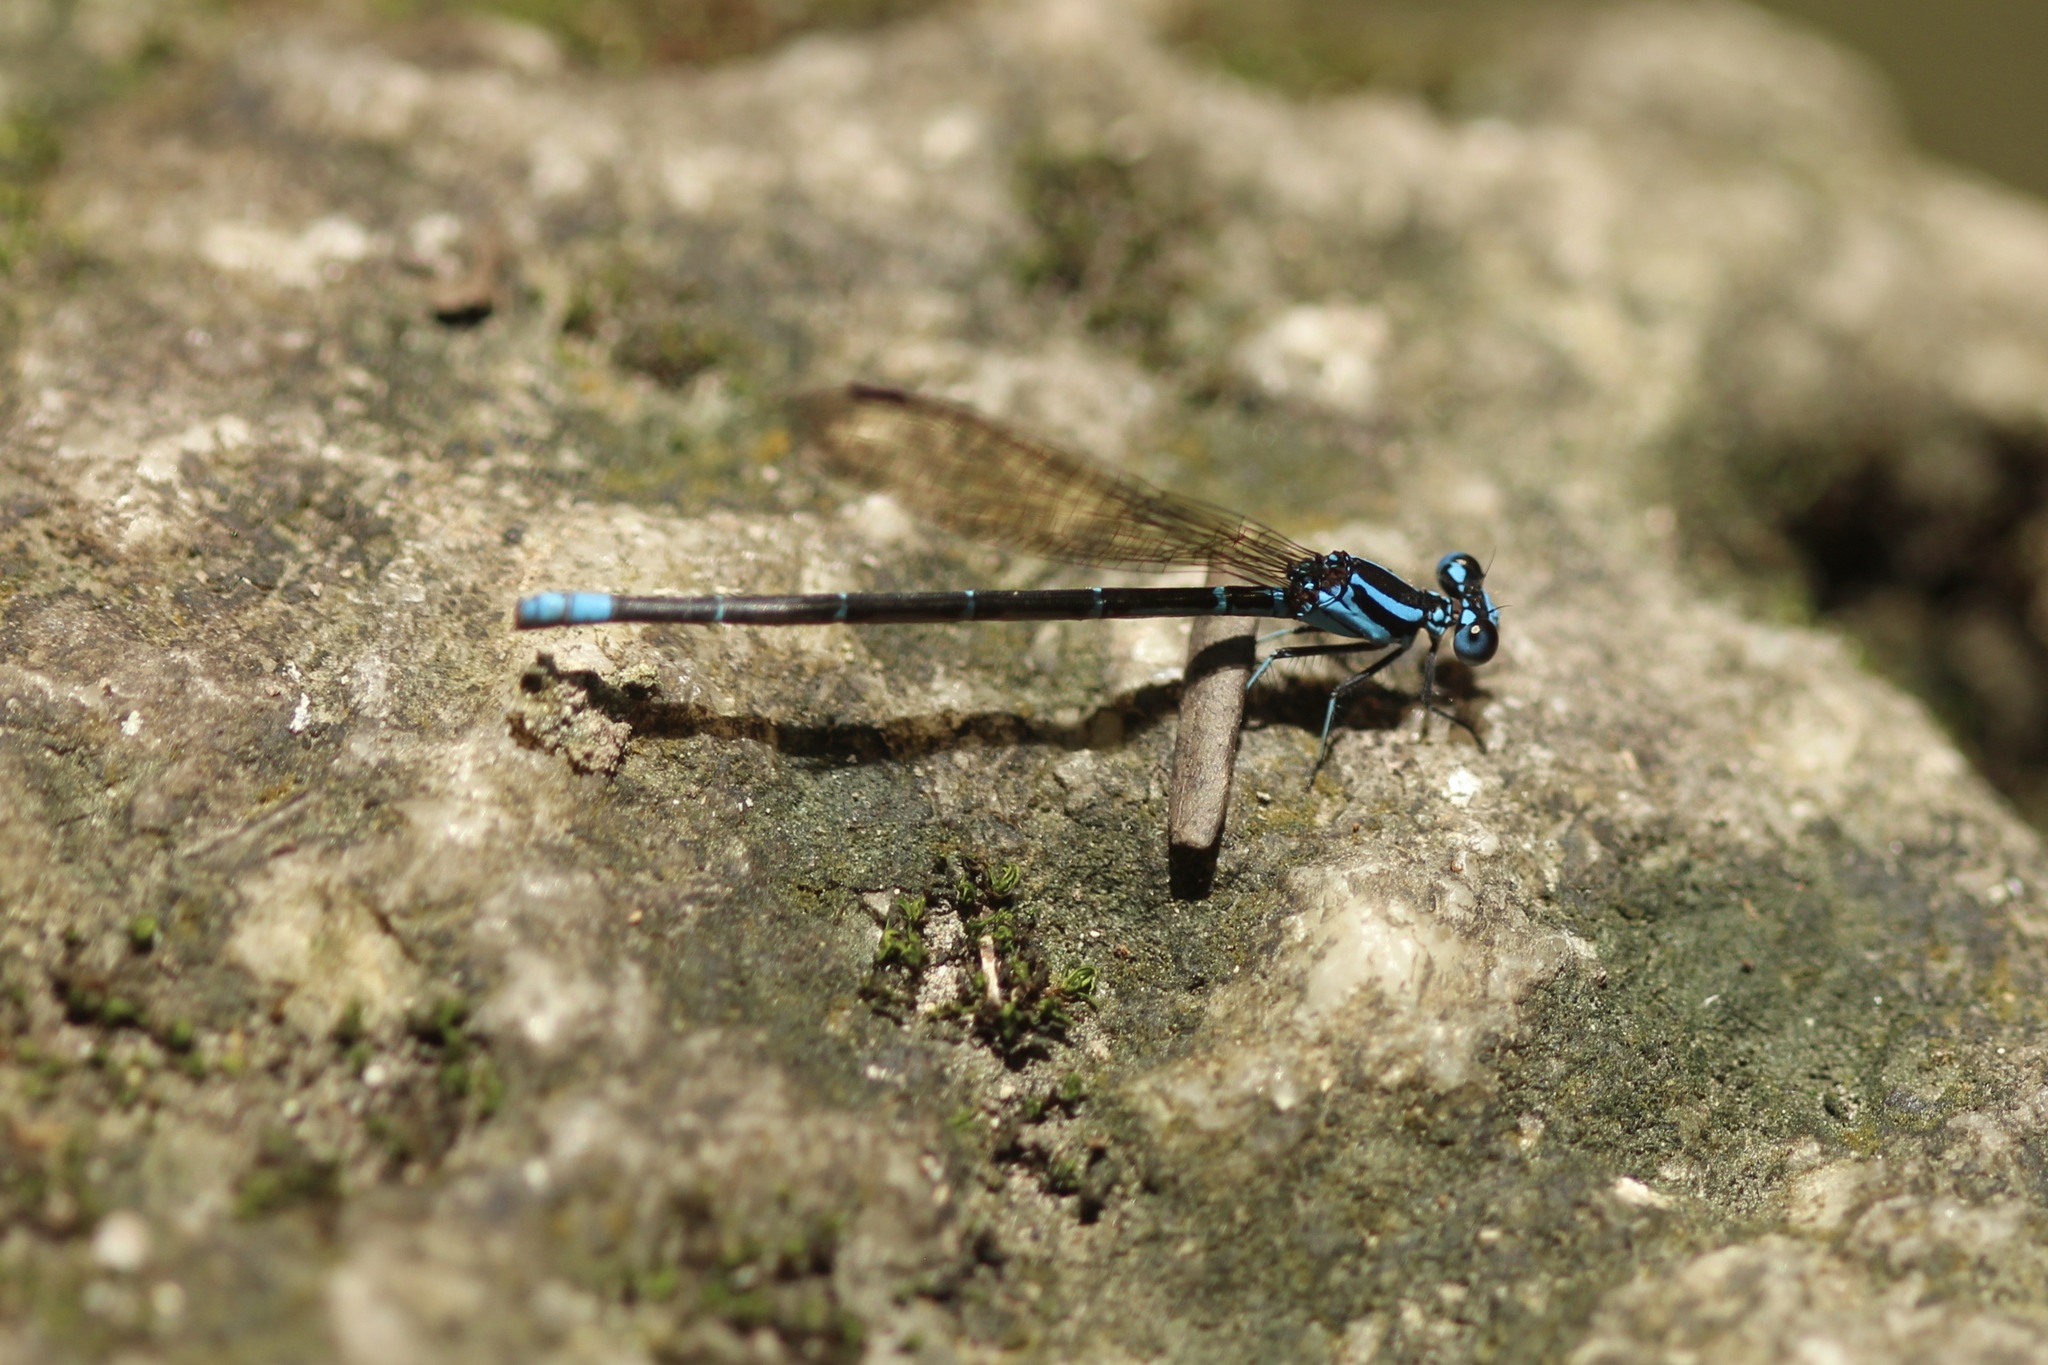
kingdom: Animalia
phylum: Arthropoda
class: Insecta
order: Odonata
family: Coenagrionidae
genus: Argia
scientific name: Argia gaumeri
